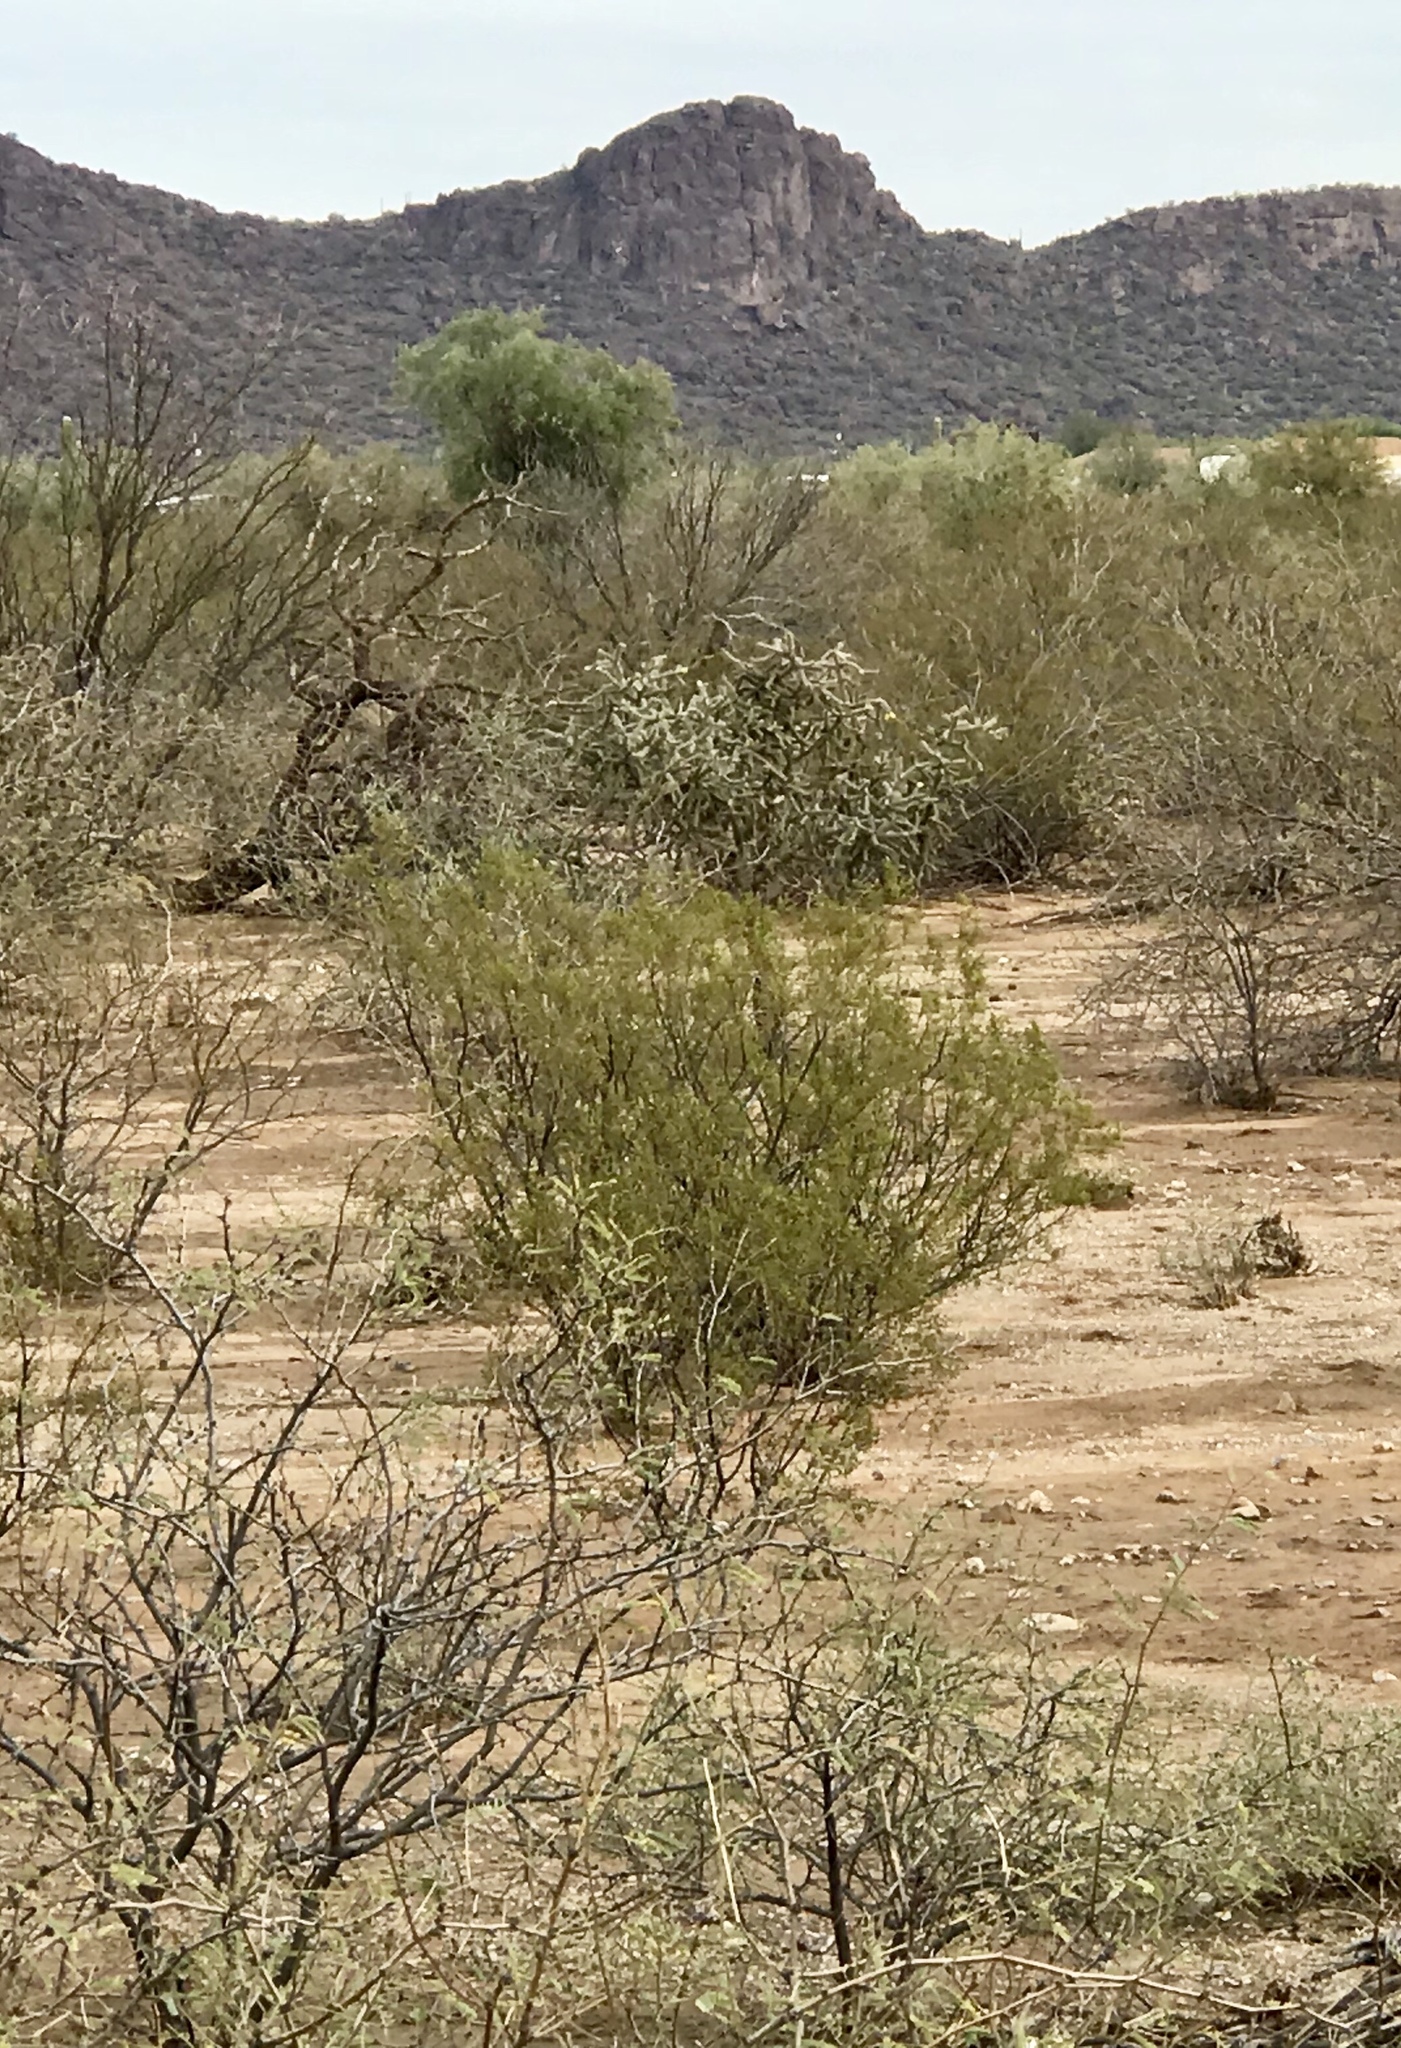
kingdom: Plantae
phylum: Tracheophyta
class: Magnoliopsida
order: Zygophyllales
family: Zygophyllaceae
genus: Larrea
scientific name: Larrea tridentata
